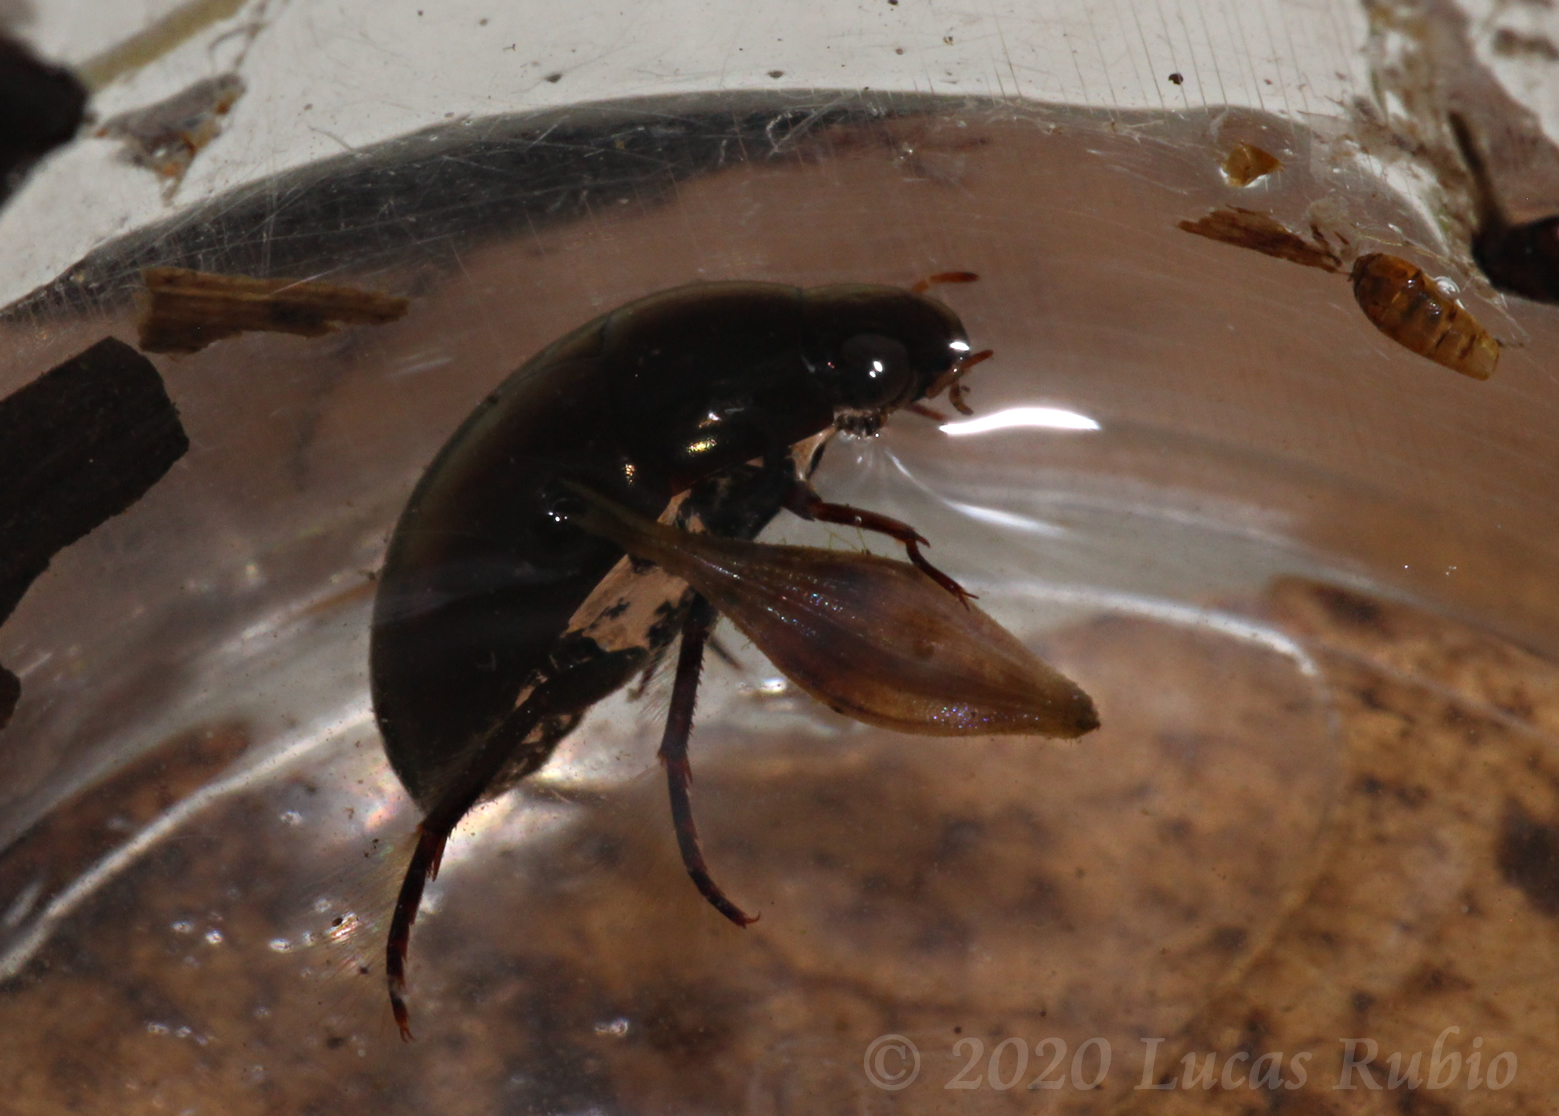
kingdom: Animalia
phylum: Arthropoda
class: Insecta
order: Coleoptera
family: Hydrophilidae
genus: Tropisternus
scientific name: Tropisternus ignoratus
